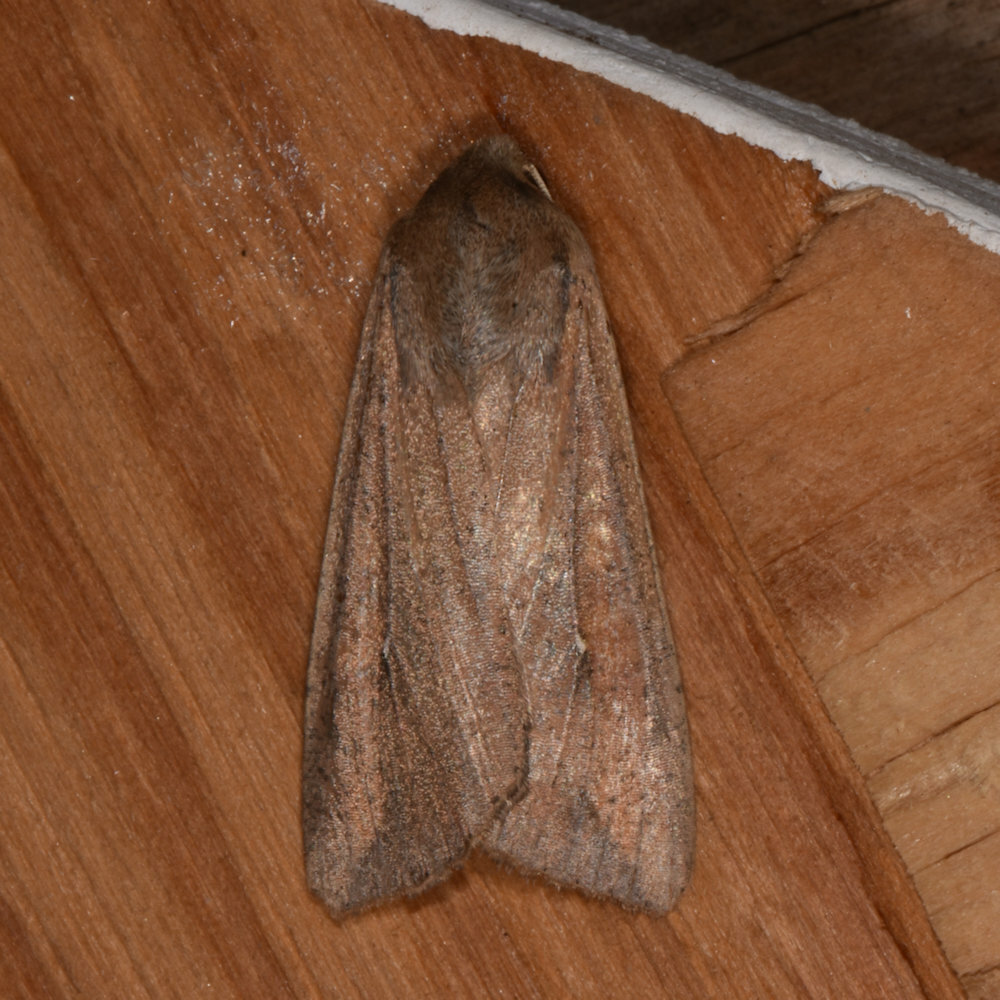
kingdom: Animalia
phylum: Arthropoda
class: Insecta
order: Lepidoptera
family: Noctuidae
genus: Mythimna
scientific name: Mythimna unipuncta
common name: White-speck
